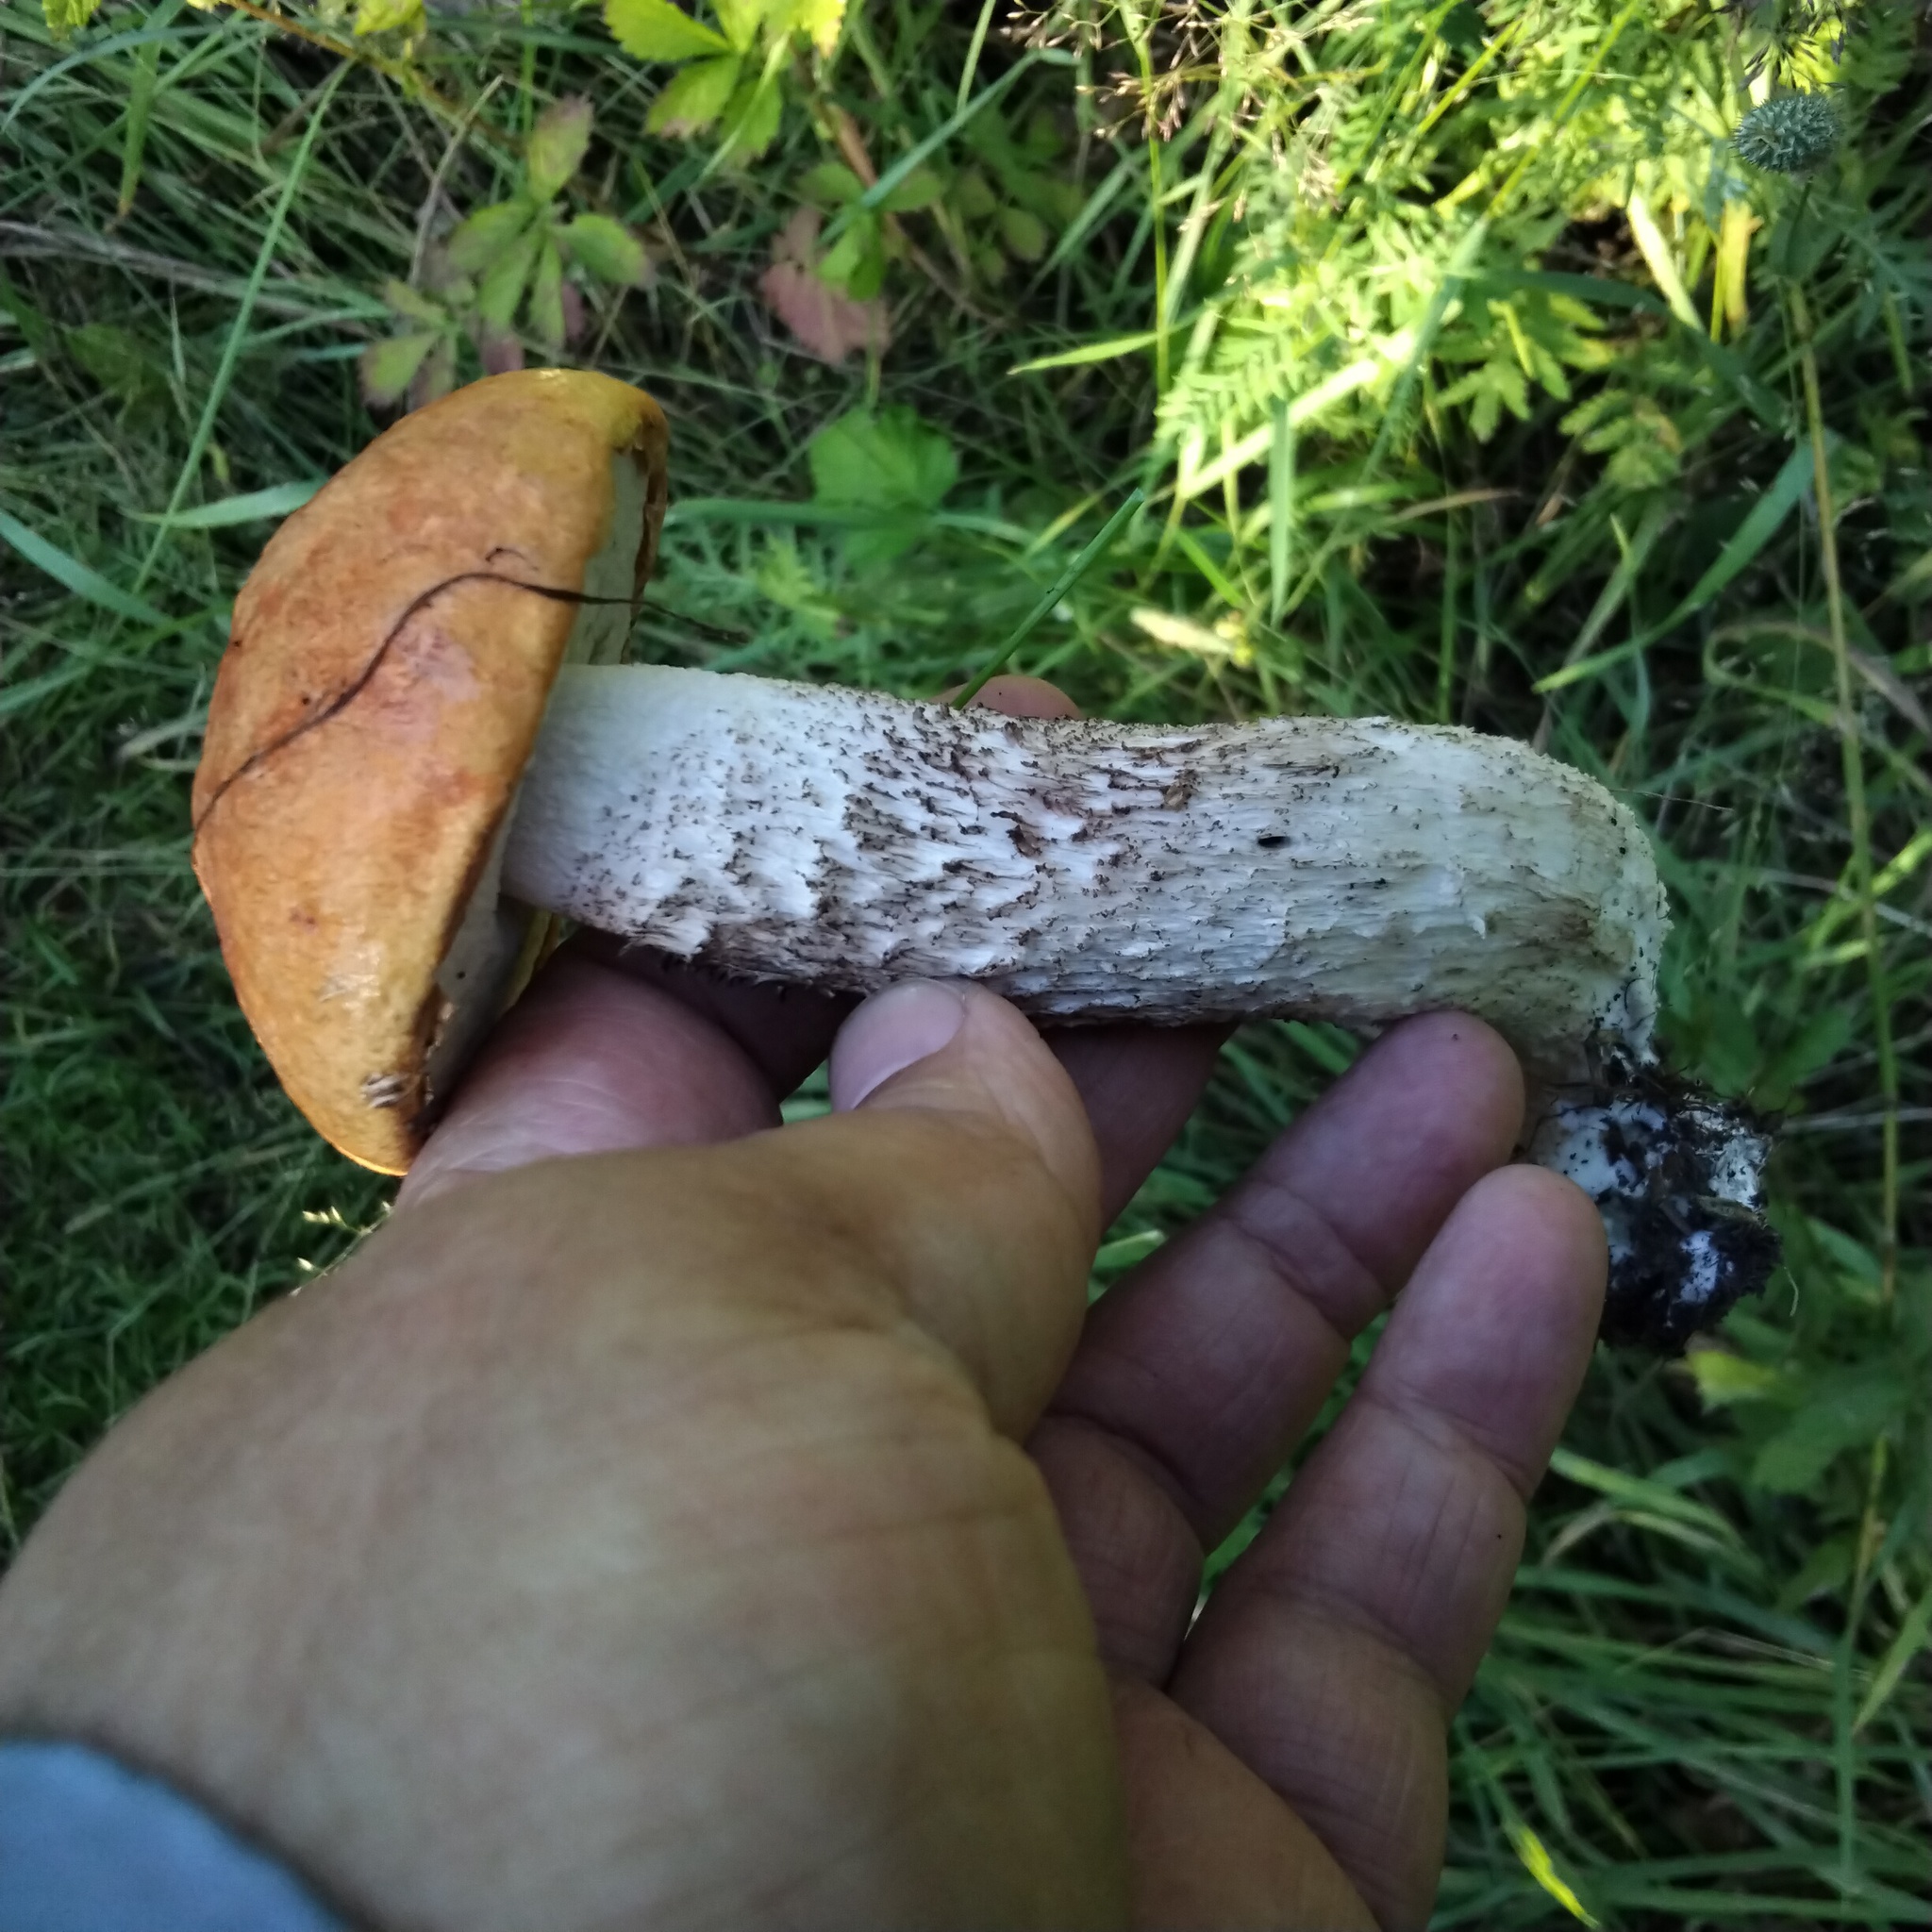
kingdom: Fungi
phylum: Basidiomycota
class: Agaricomycetes
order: Boletales
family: Boletaceae
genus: Leccinum
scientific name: Leccinum aurantiacum
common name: Orange bolete
